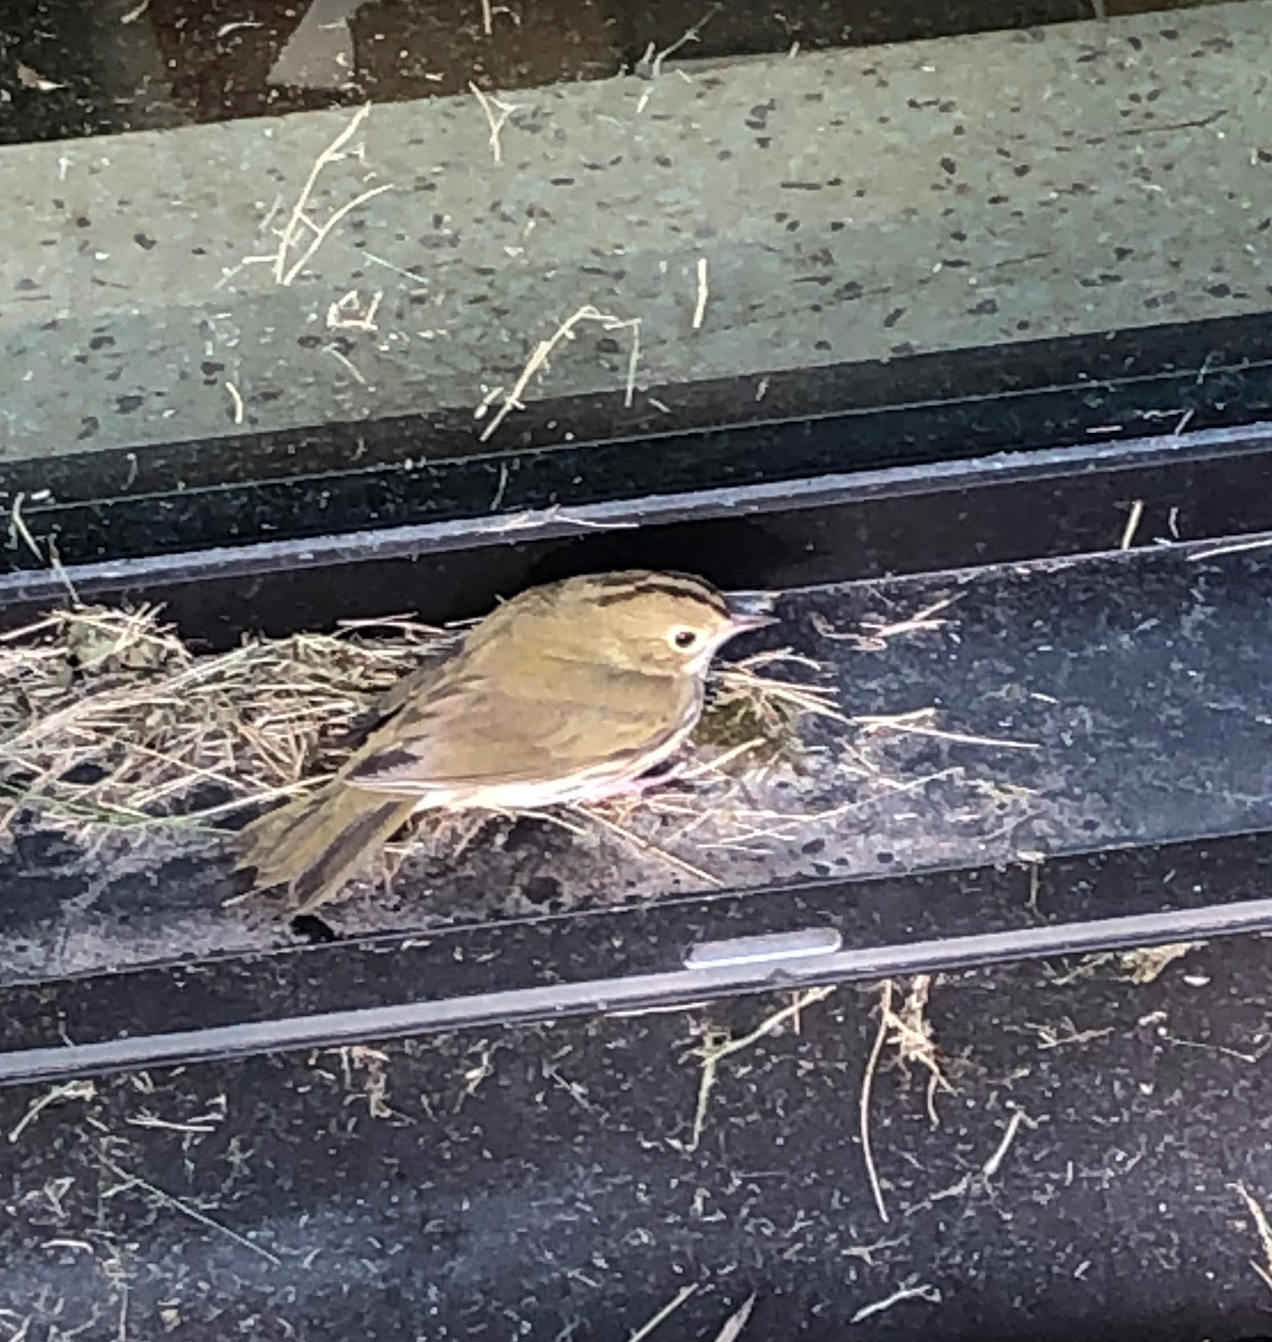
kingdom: Animalia
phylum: Chordata
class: Aves
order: Passeriformes
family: Parulidae
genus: Seiurus
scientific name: Seiurus aurocapilla
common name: Ovenbird
